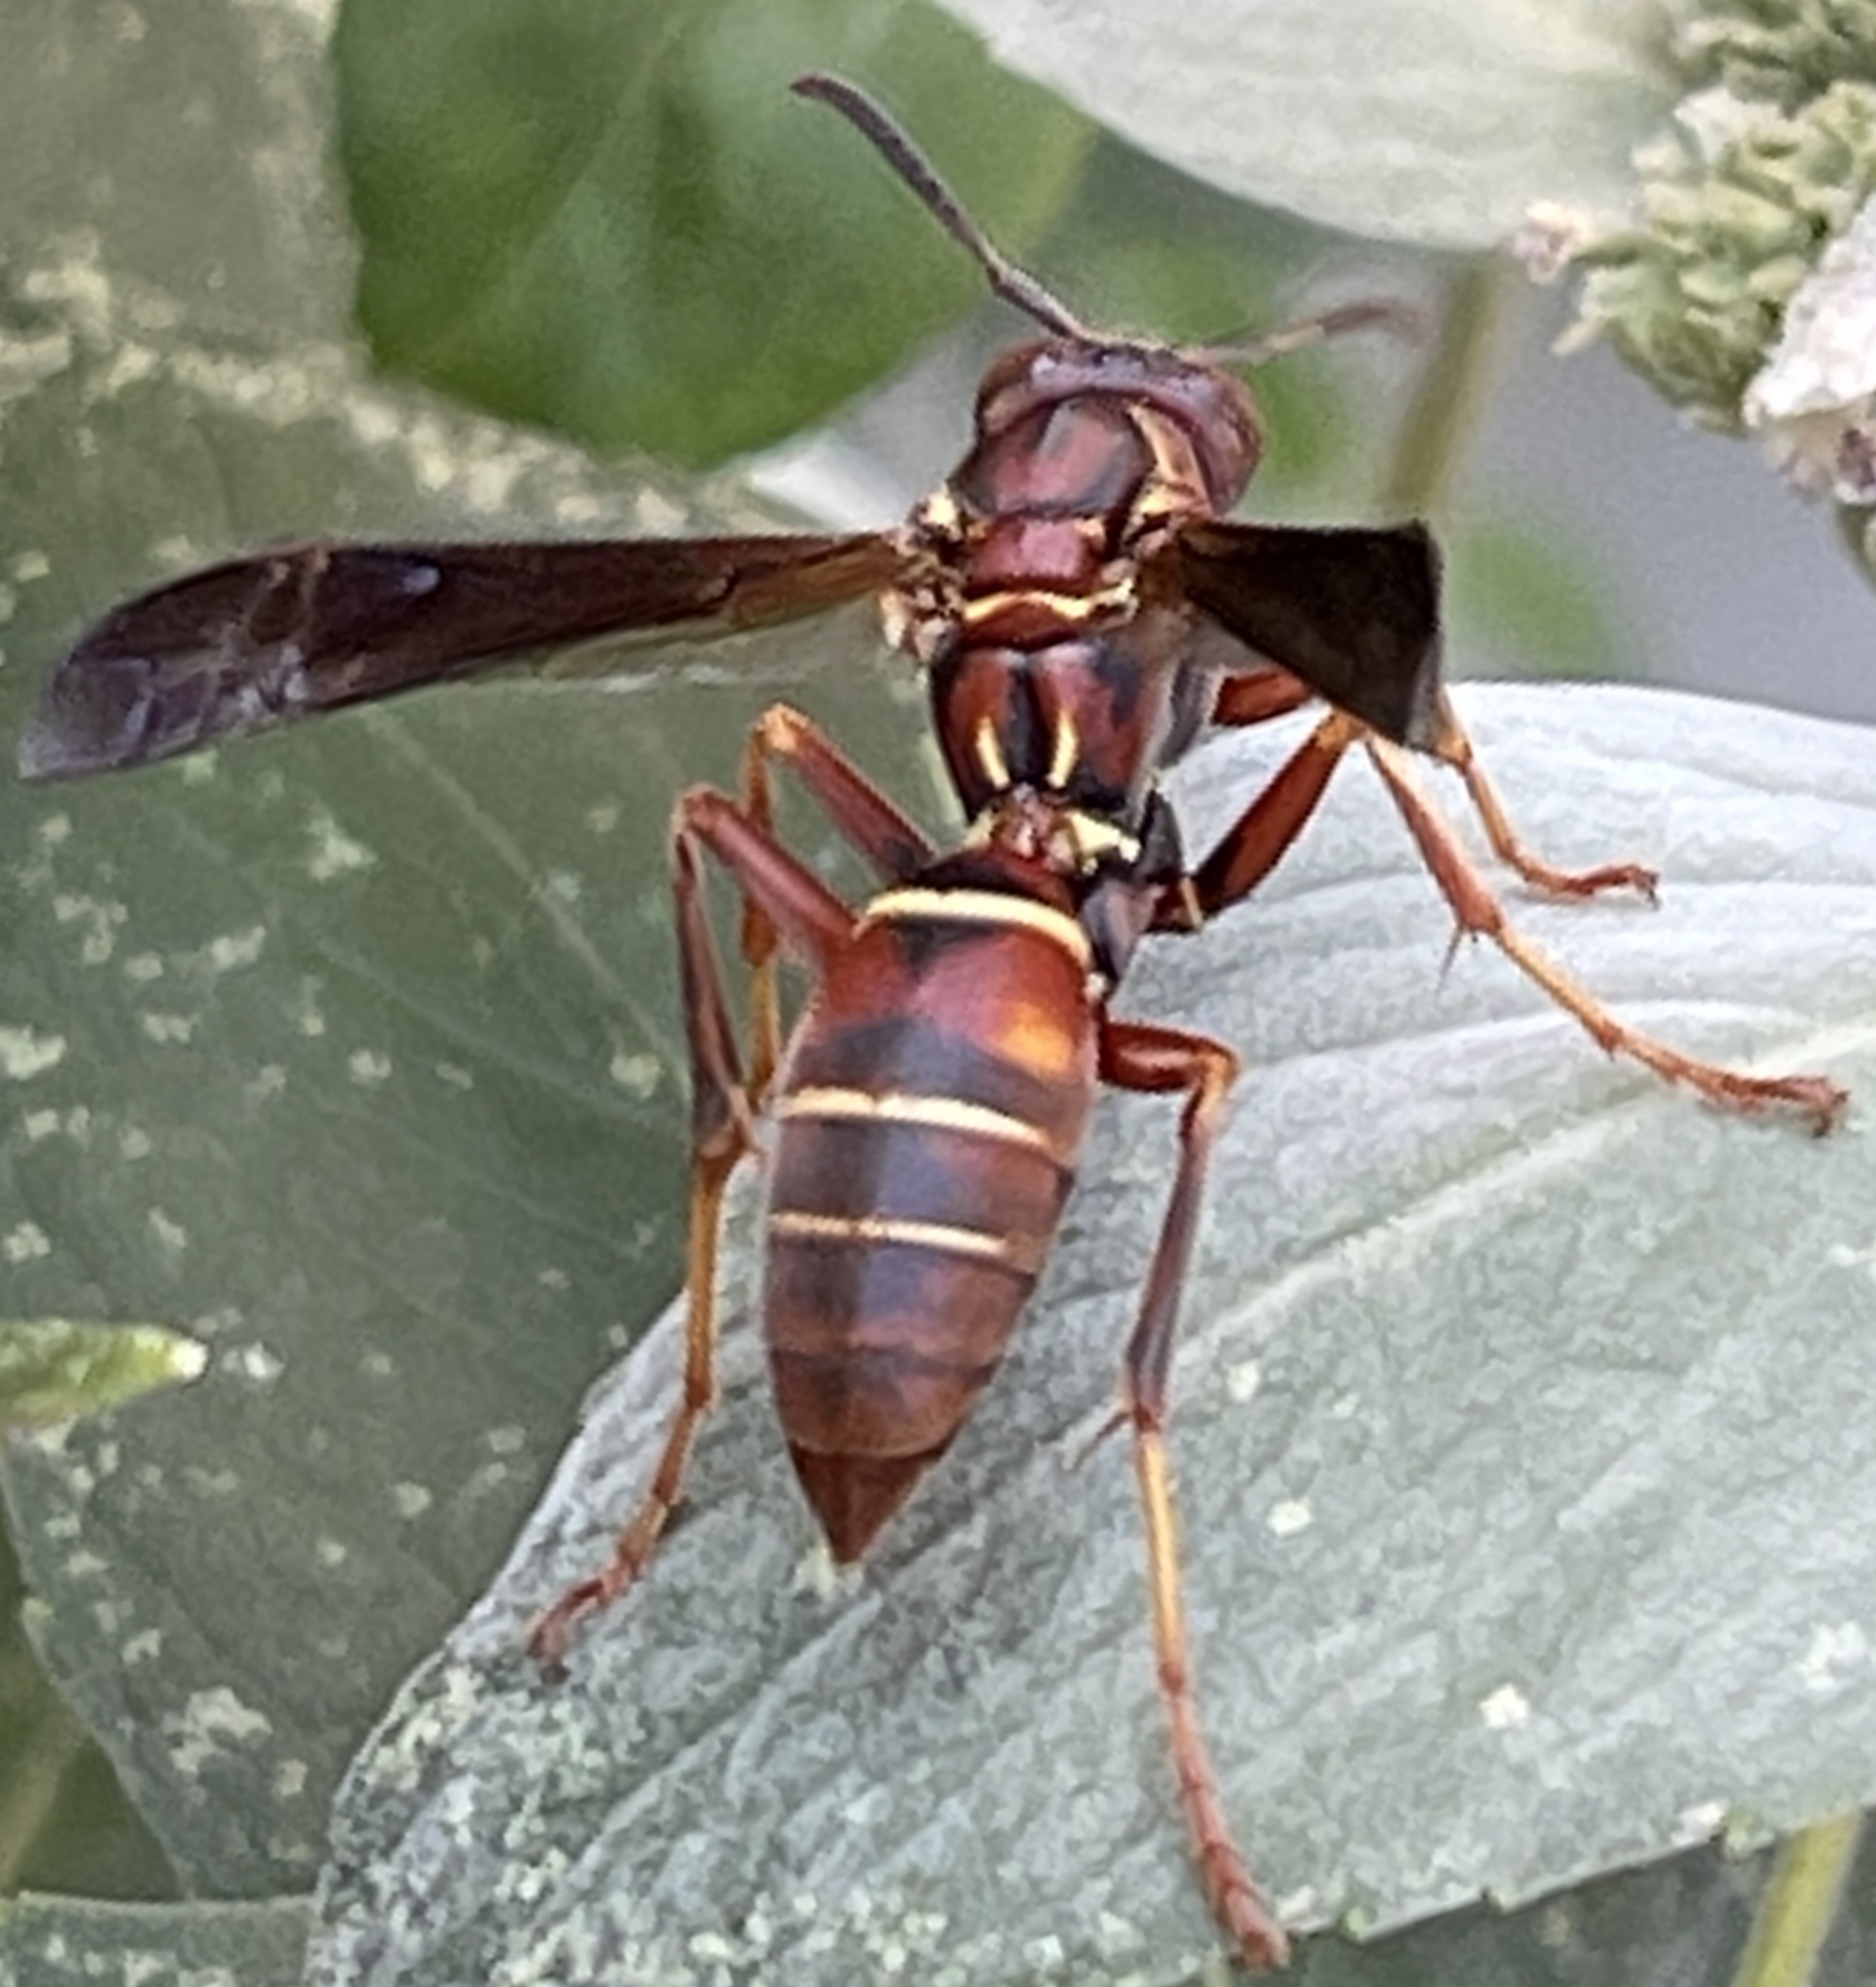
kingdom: Animalia
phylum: Arthropoda
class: Insecta
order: Hymenoptera
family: Eumenidae
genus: Polistes
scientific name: Polistes fuscatus
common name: Dark paper wasp
